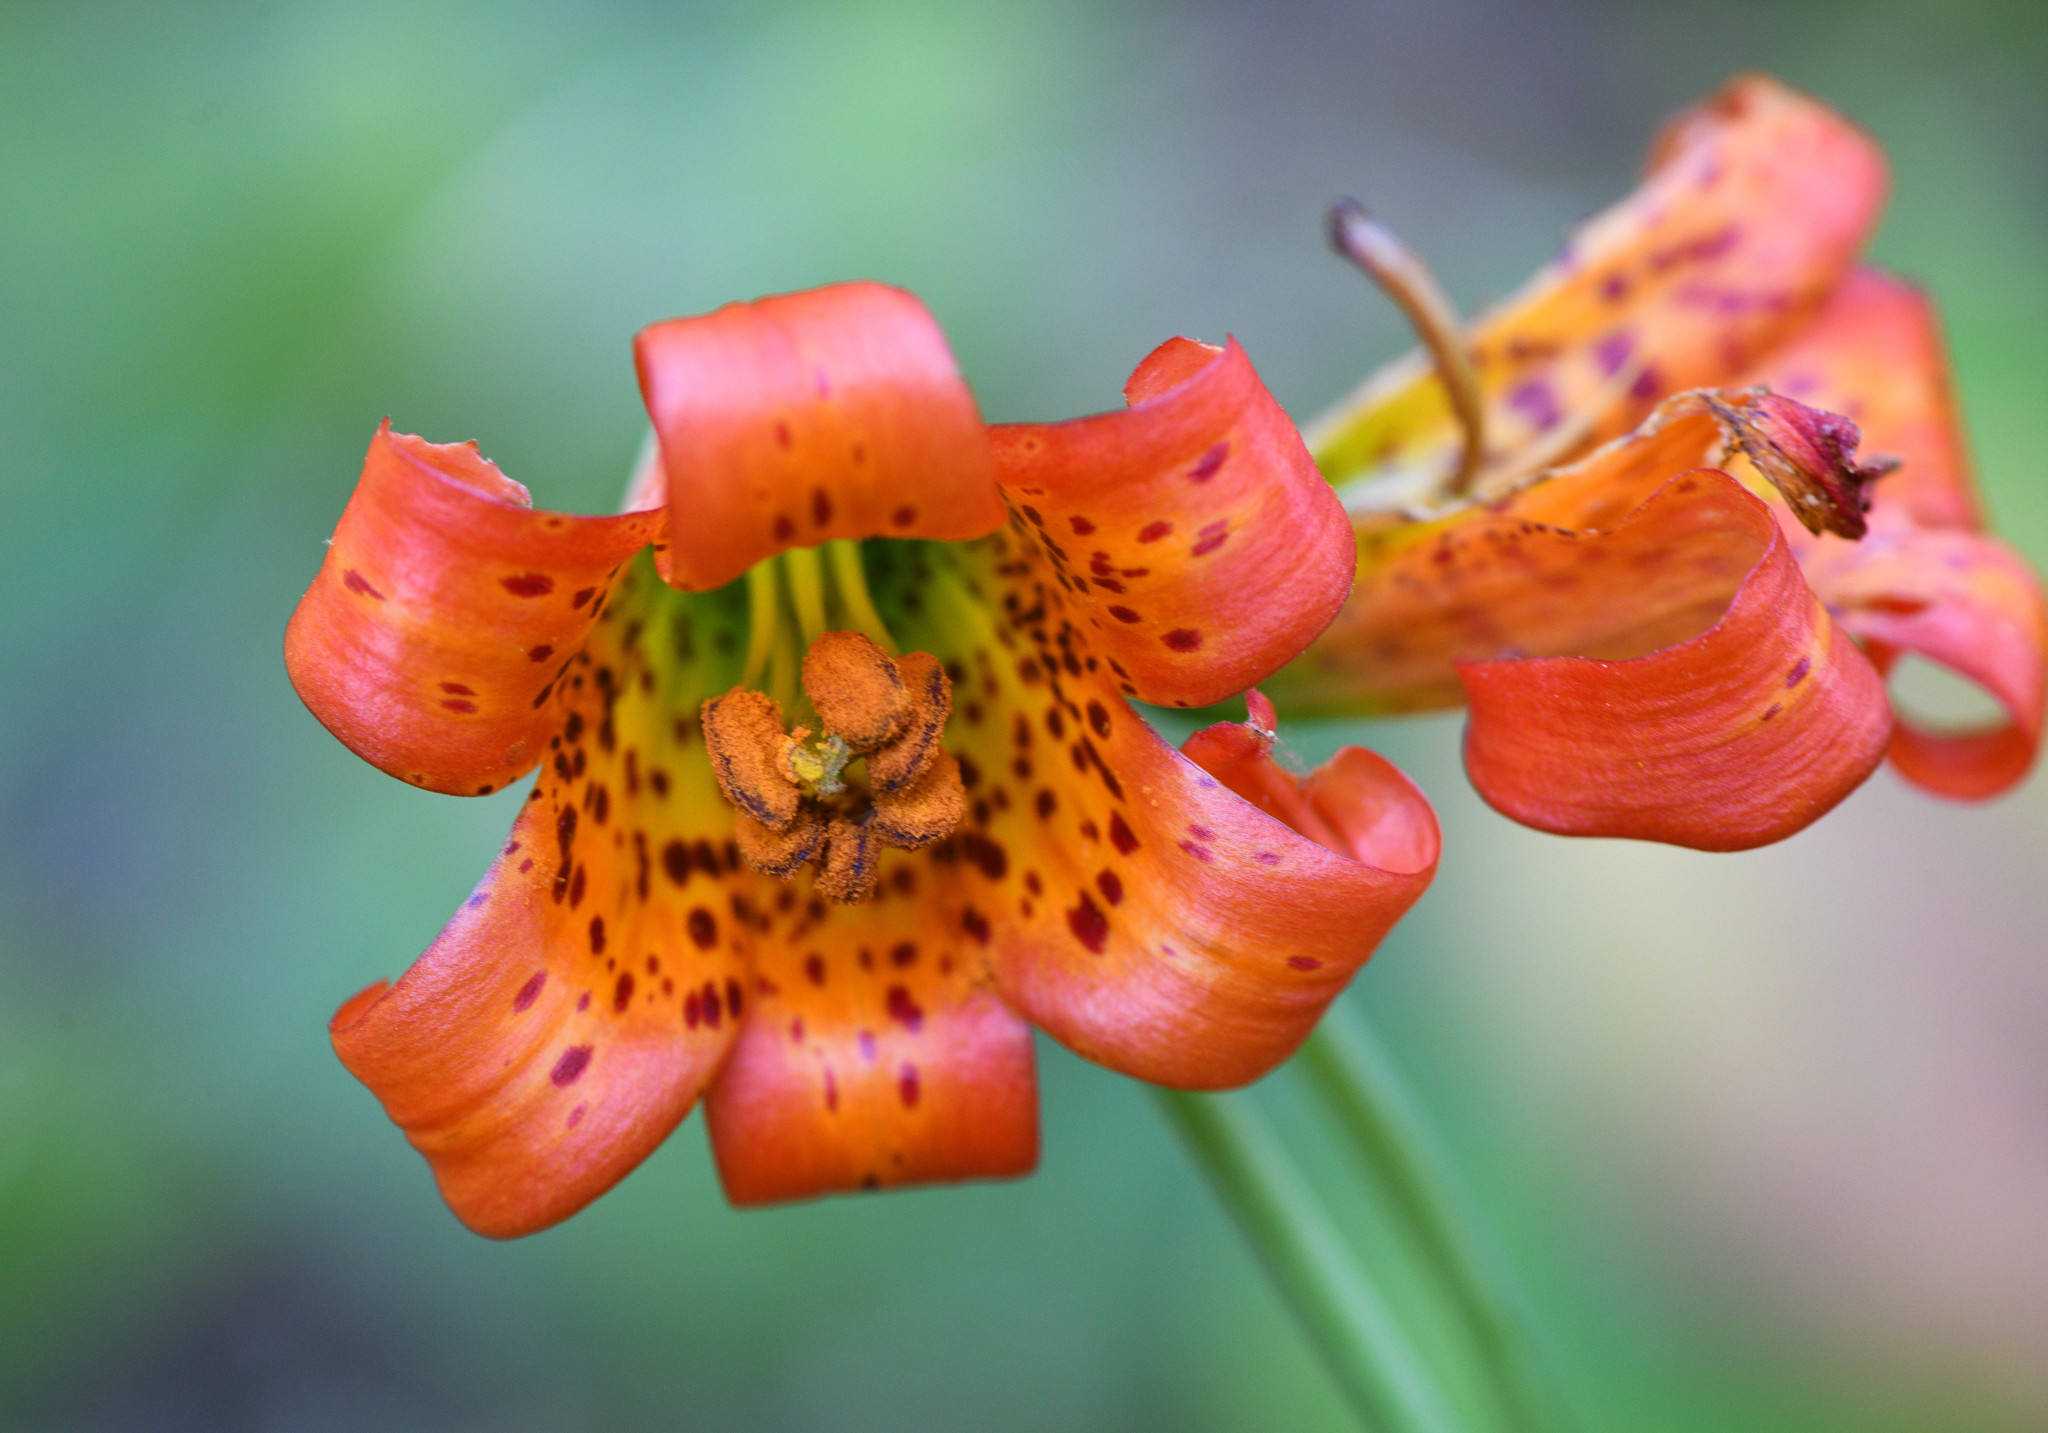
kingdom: Plantae
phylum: Tracheophyta
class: Liliopsida
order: Liliales
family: Liliaceae
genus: Lilium
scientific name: Lilium maritimum
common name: Coastal lily
